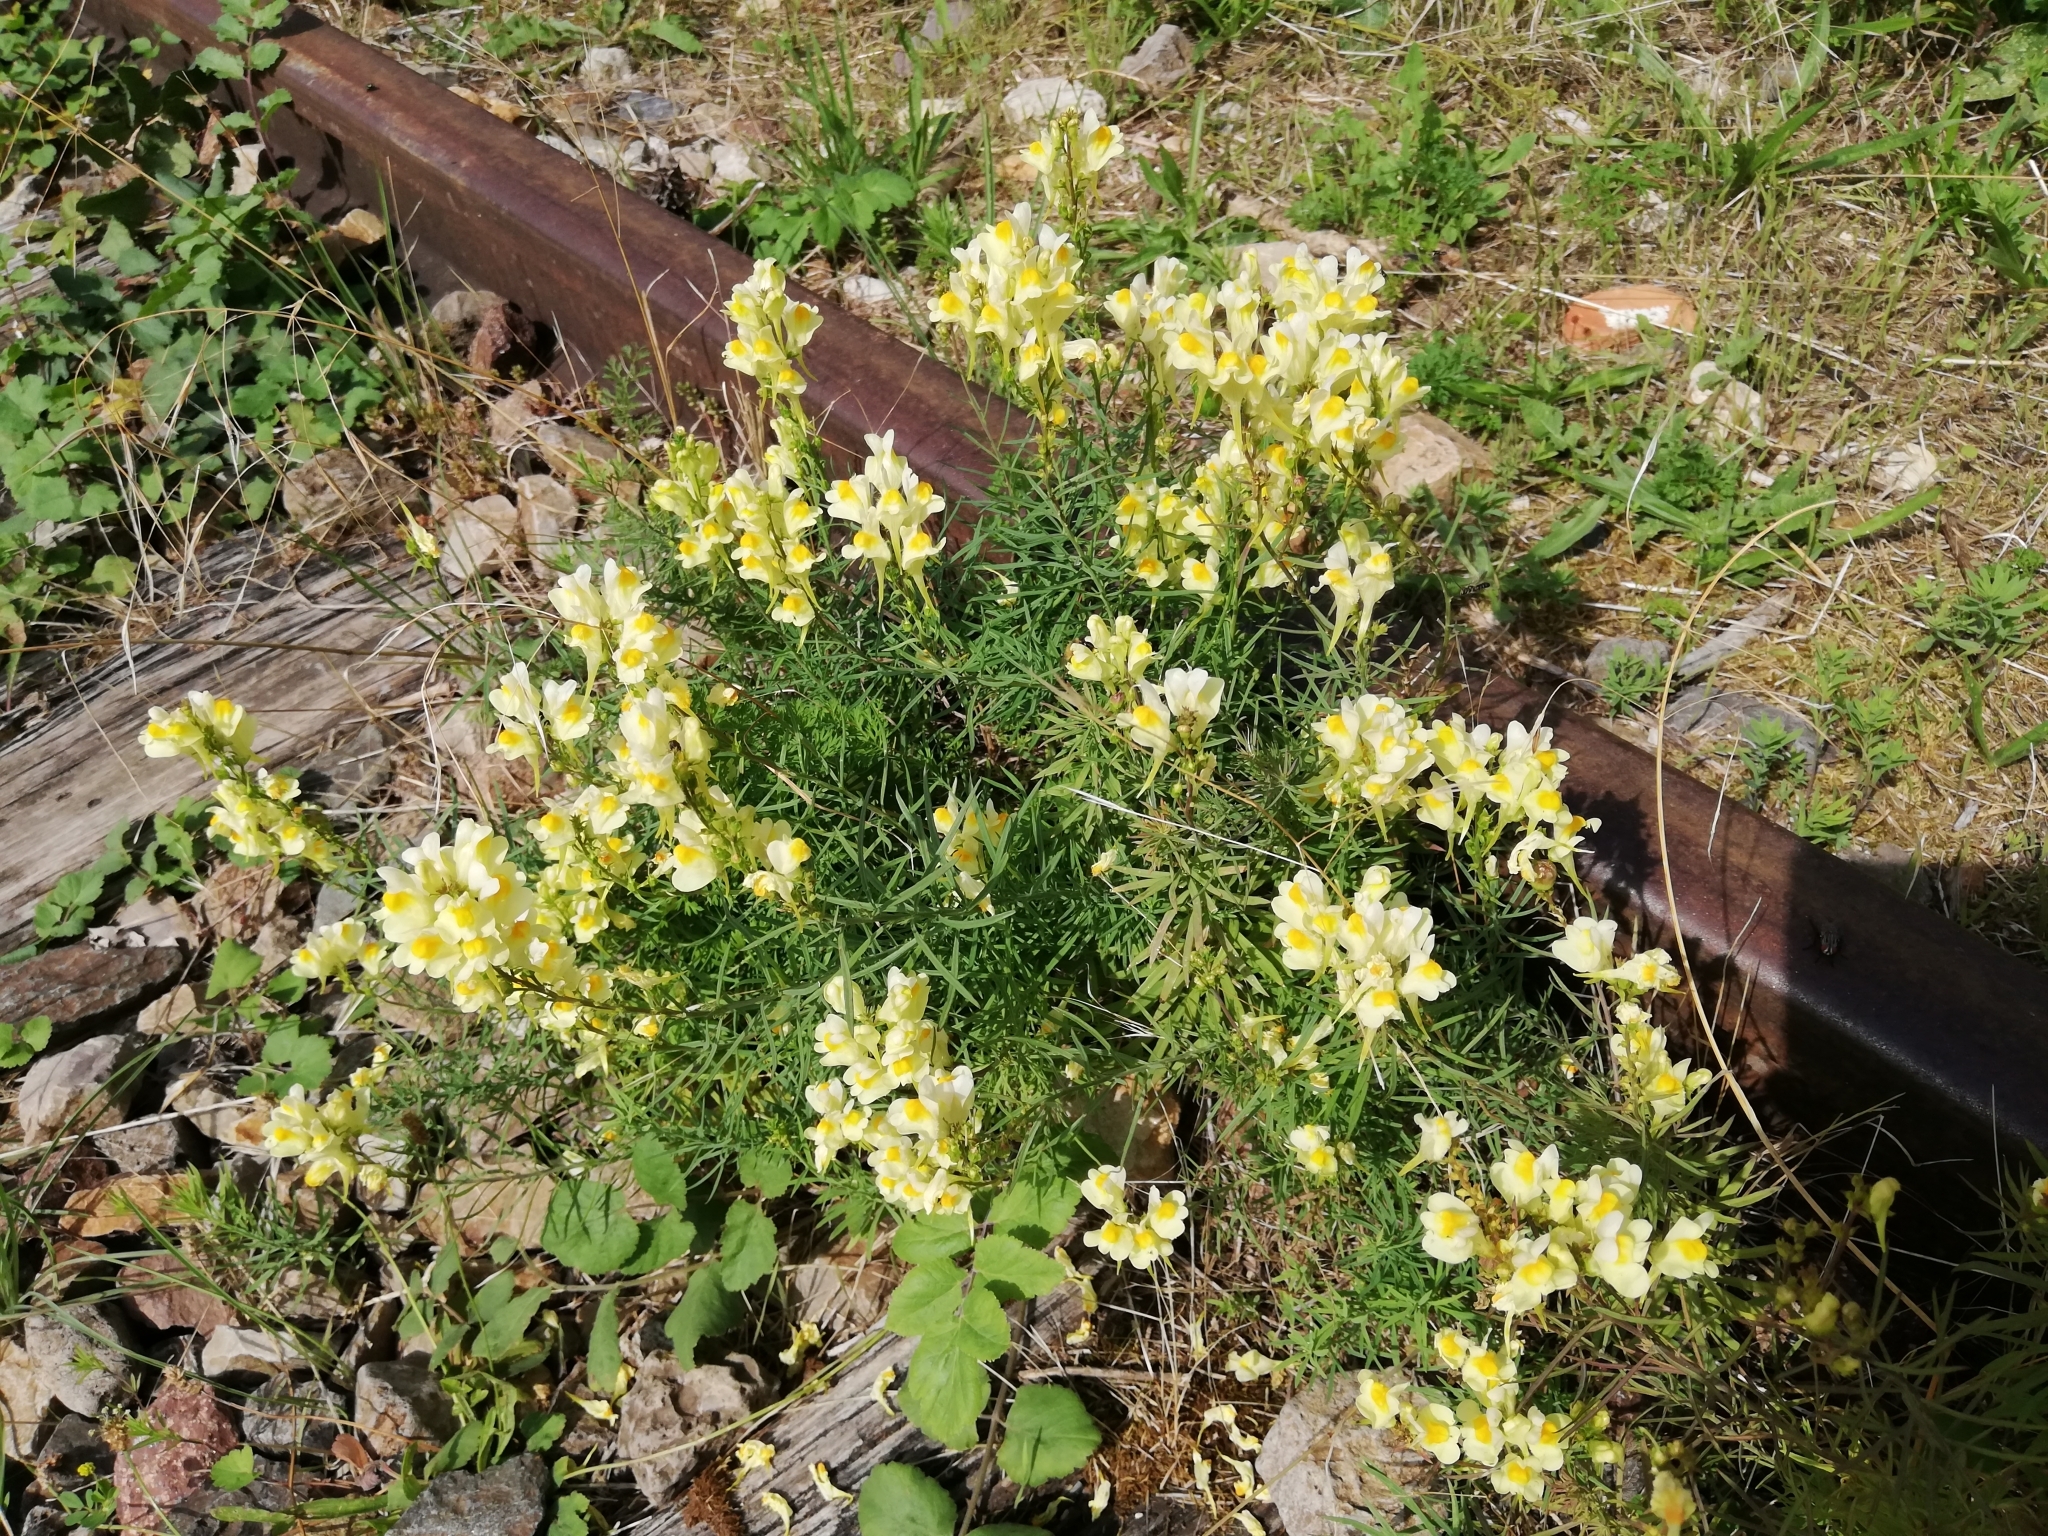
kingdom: Plantae
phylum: Tracheophyta
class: Magnoliopsida
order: Lamiales
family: Plantaginaceae
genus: Linaria
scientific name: Linaria vulgaris
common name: Butter and eggs
